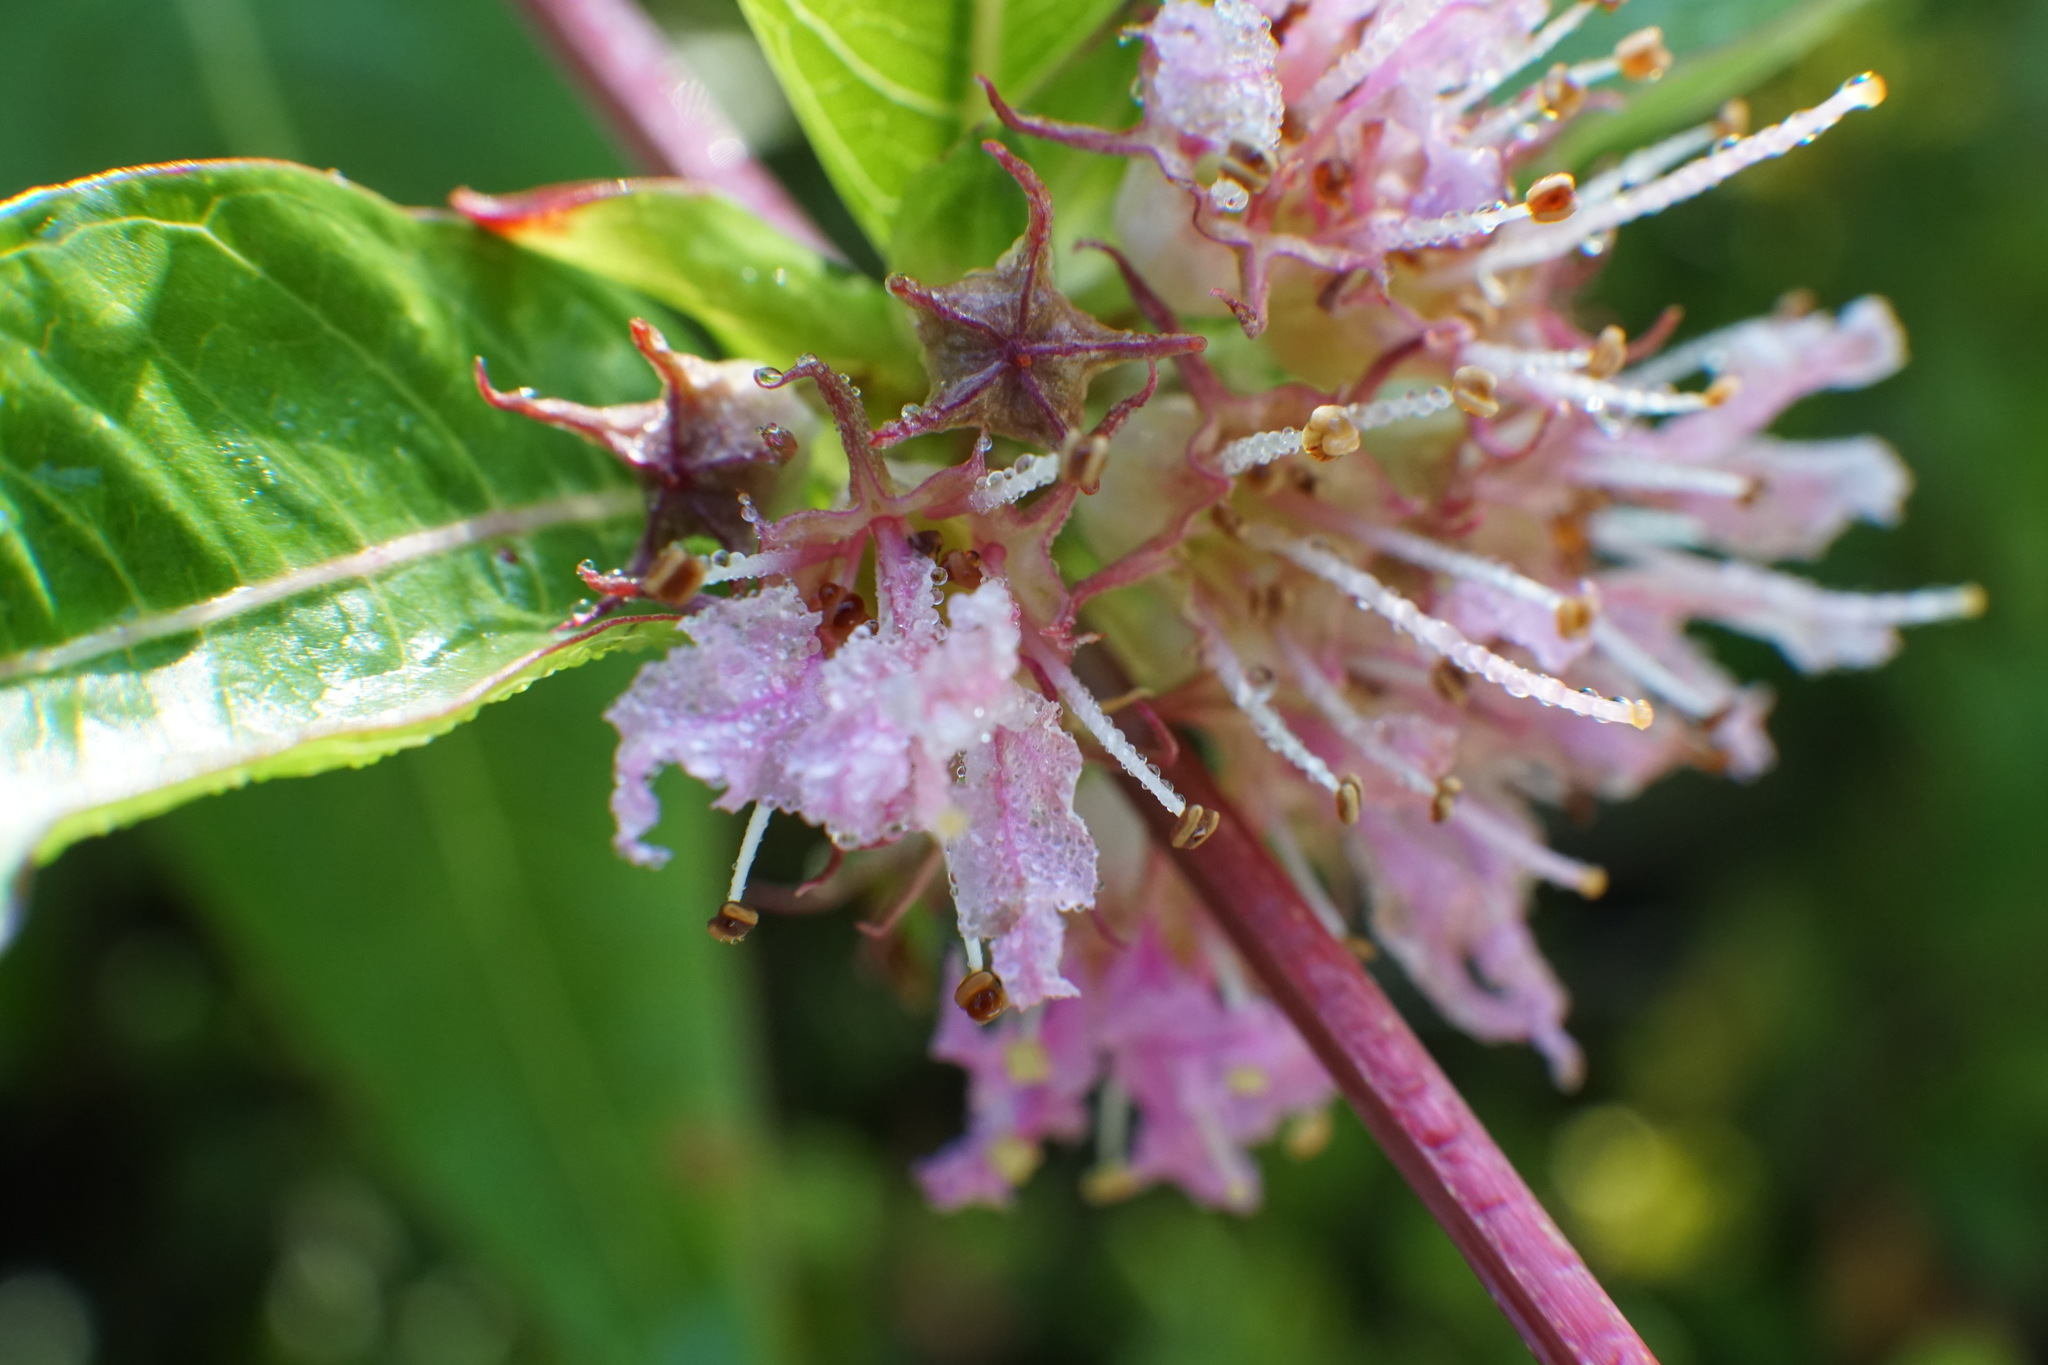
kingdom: Plantae
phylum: Tracheophyta
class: Magnoliopsida
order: Myrtales
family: Lythraceae
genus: Decodon
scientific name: Decodon verticillatus
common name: Hairy swamp loosestrife
